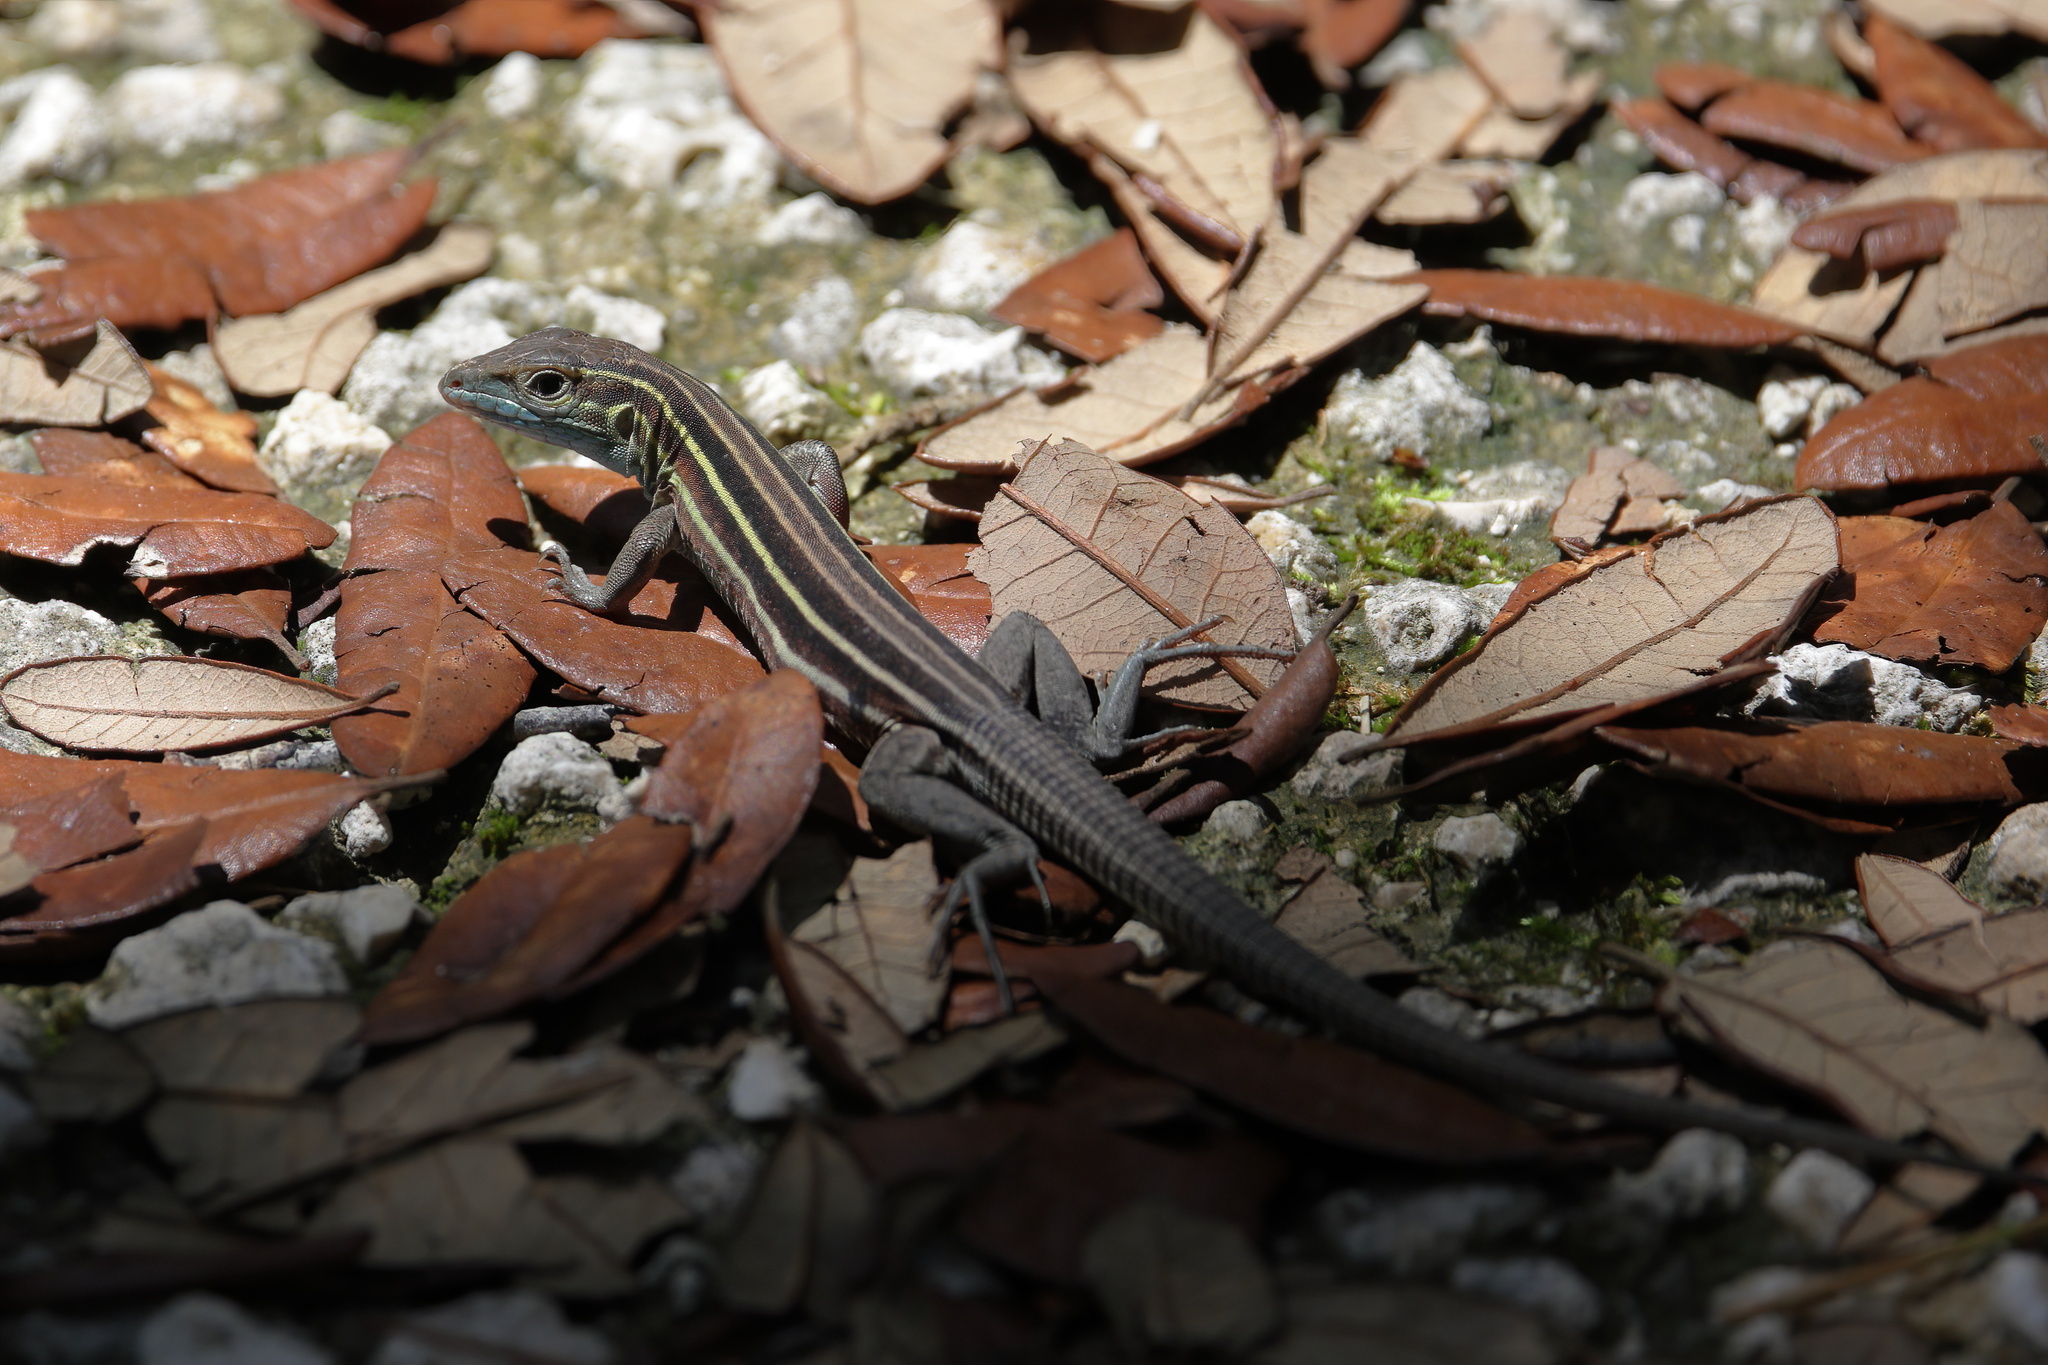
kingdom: Animalia
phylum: Chordata
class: Squamata
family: Teiidae
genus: Aspidoscelis
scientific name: Aspidoscelis sexlineatus
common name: Six-lined racerunner
